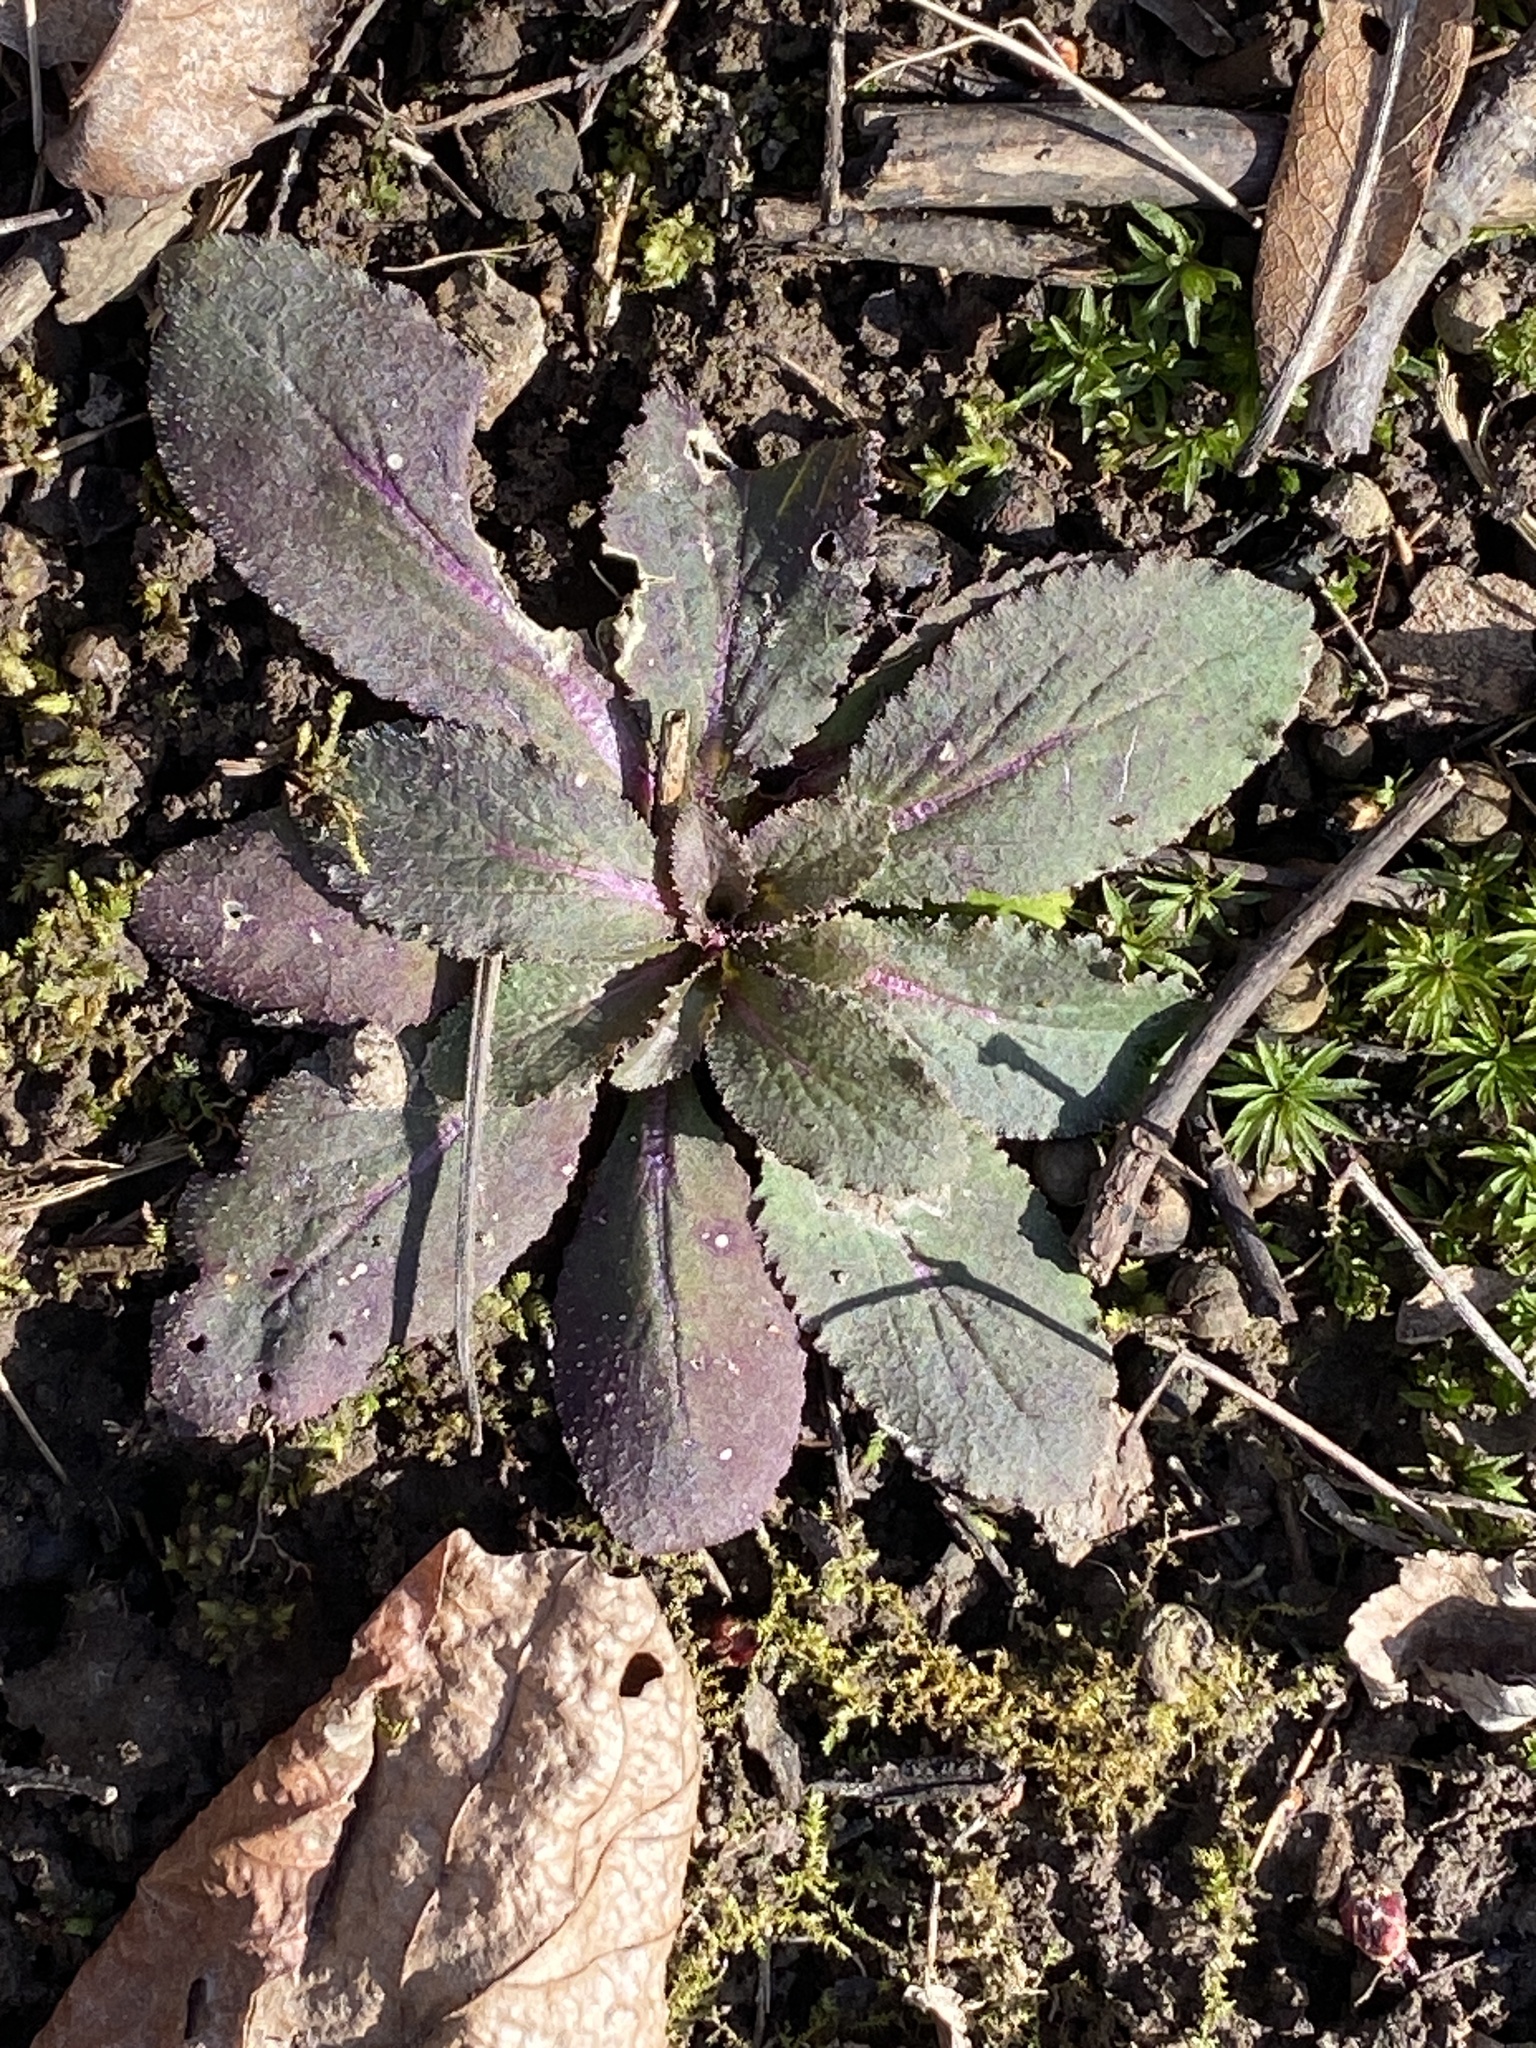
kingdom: Plantae
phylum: Tracheophyta
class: Magnoliopsida
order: Asterales
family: Campanulaceae
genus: Lobelia
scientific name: Lobelia inflata
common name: Indian tobacco
